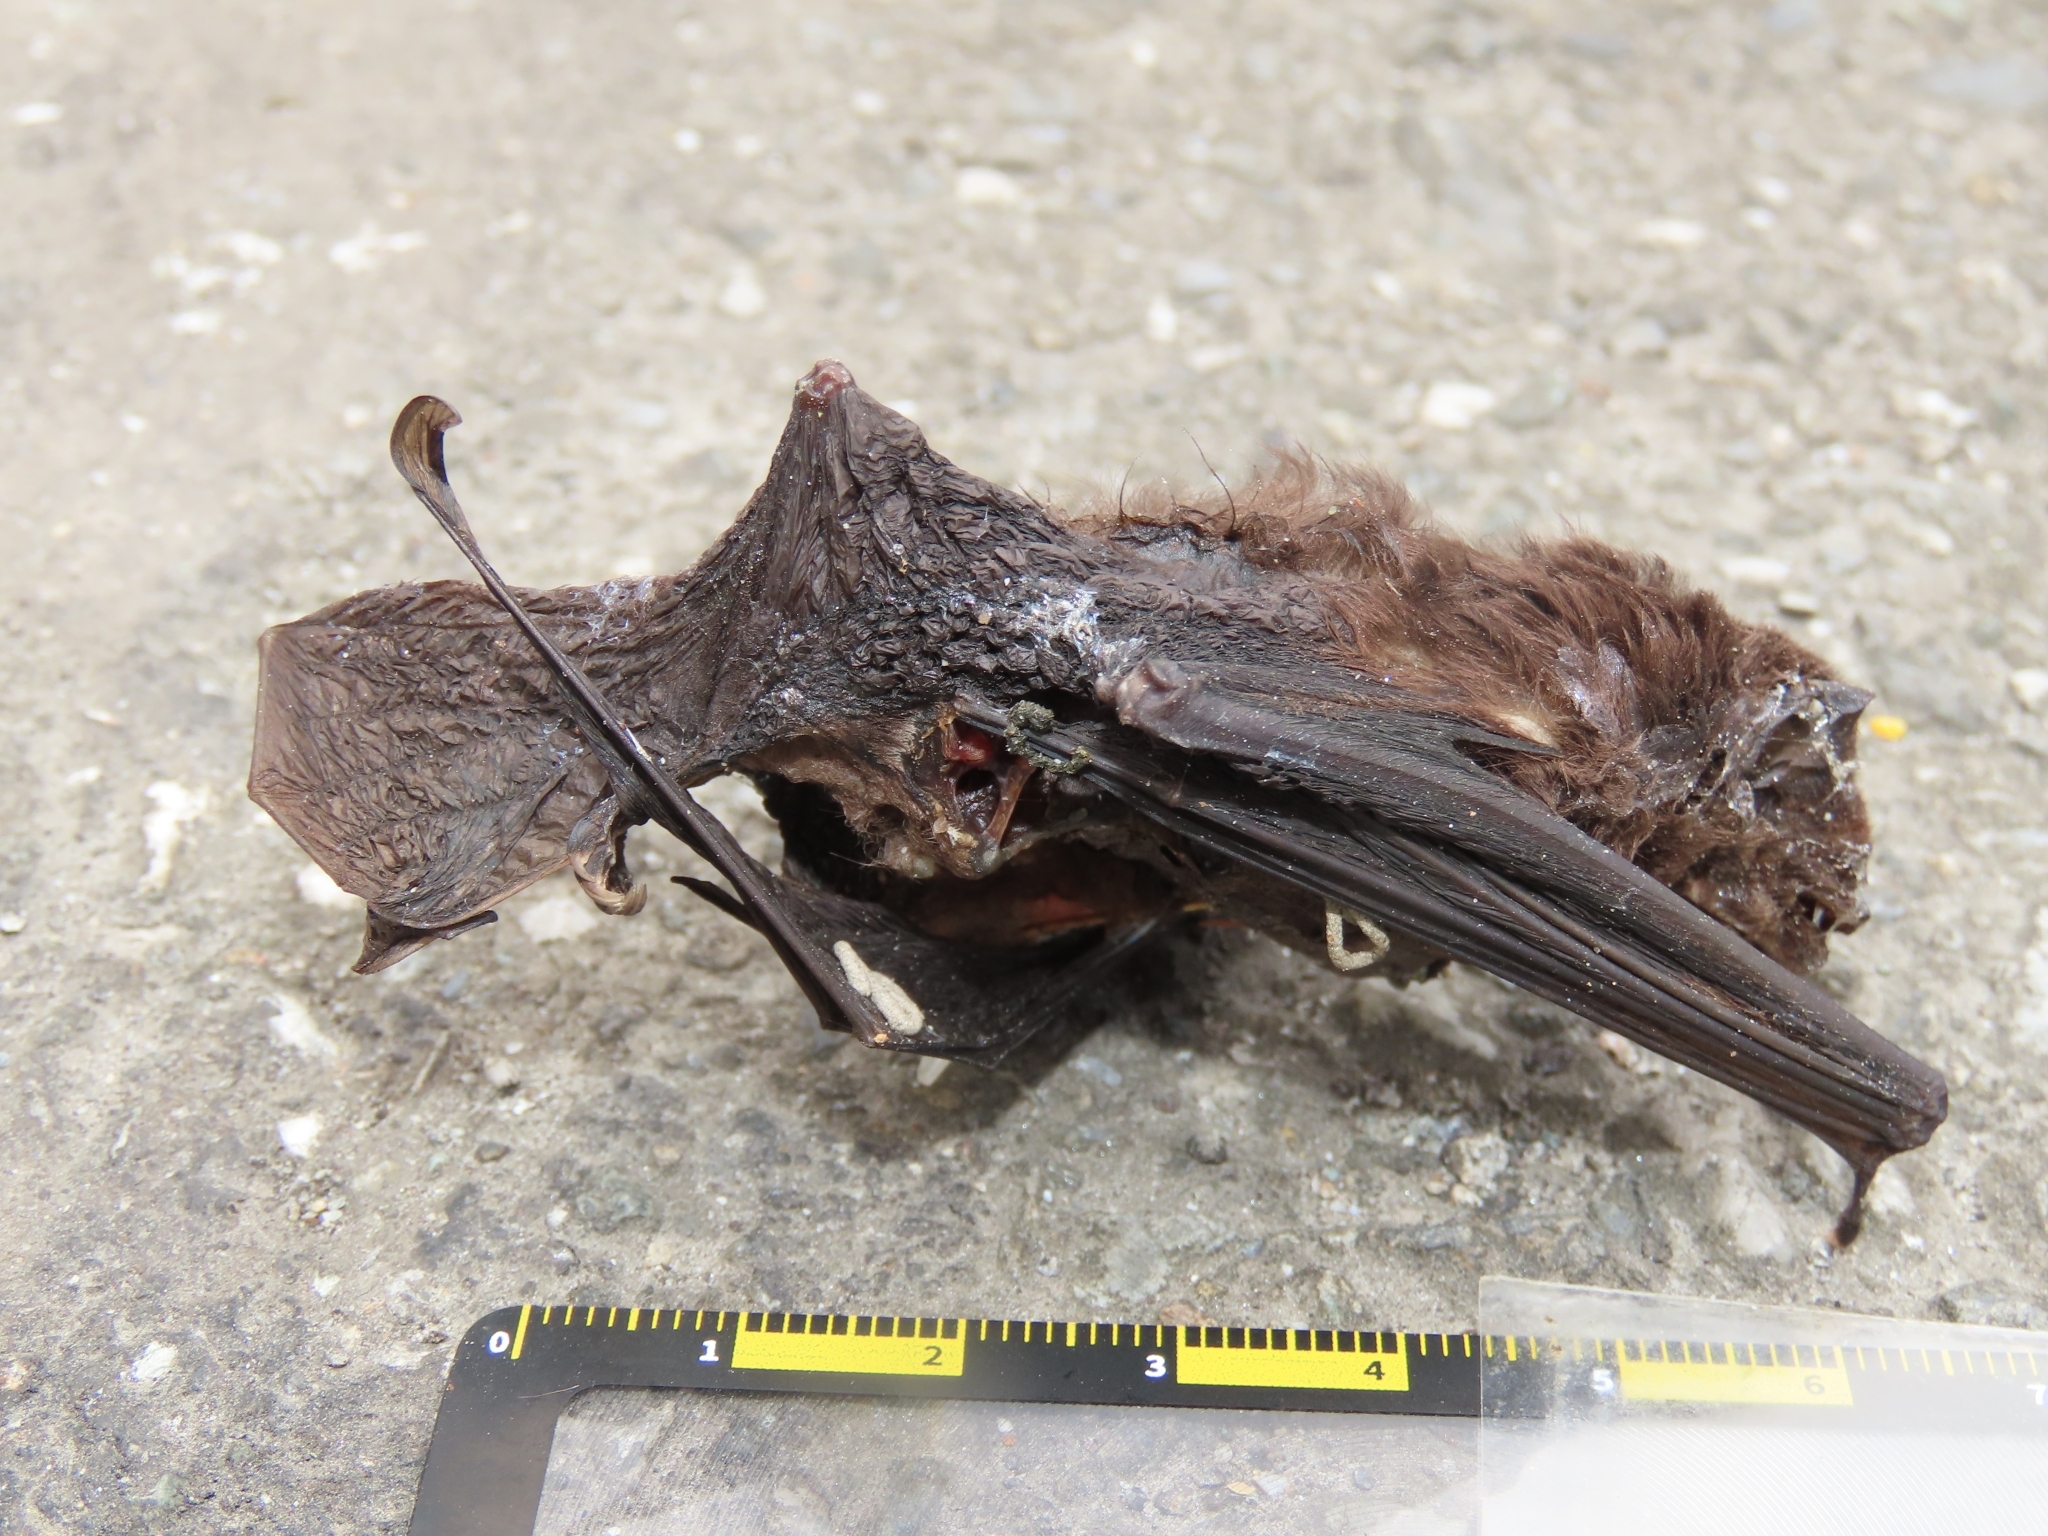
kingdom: Animalia
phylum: Chordata
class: Mammalia
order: Chiroptera
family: Miniopteridae
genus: Miniopterus
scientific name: Miniopterus fuliginosus
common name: Asian long-fingered bat
